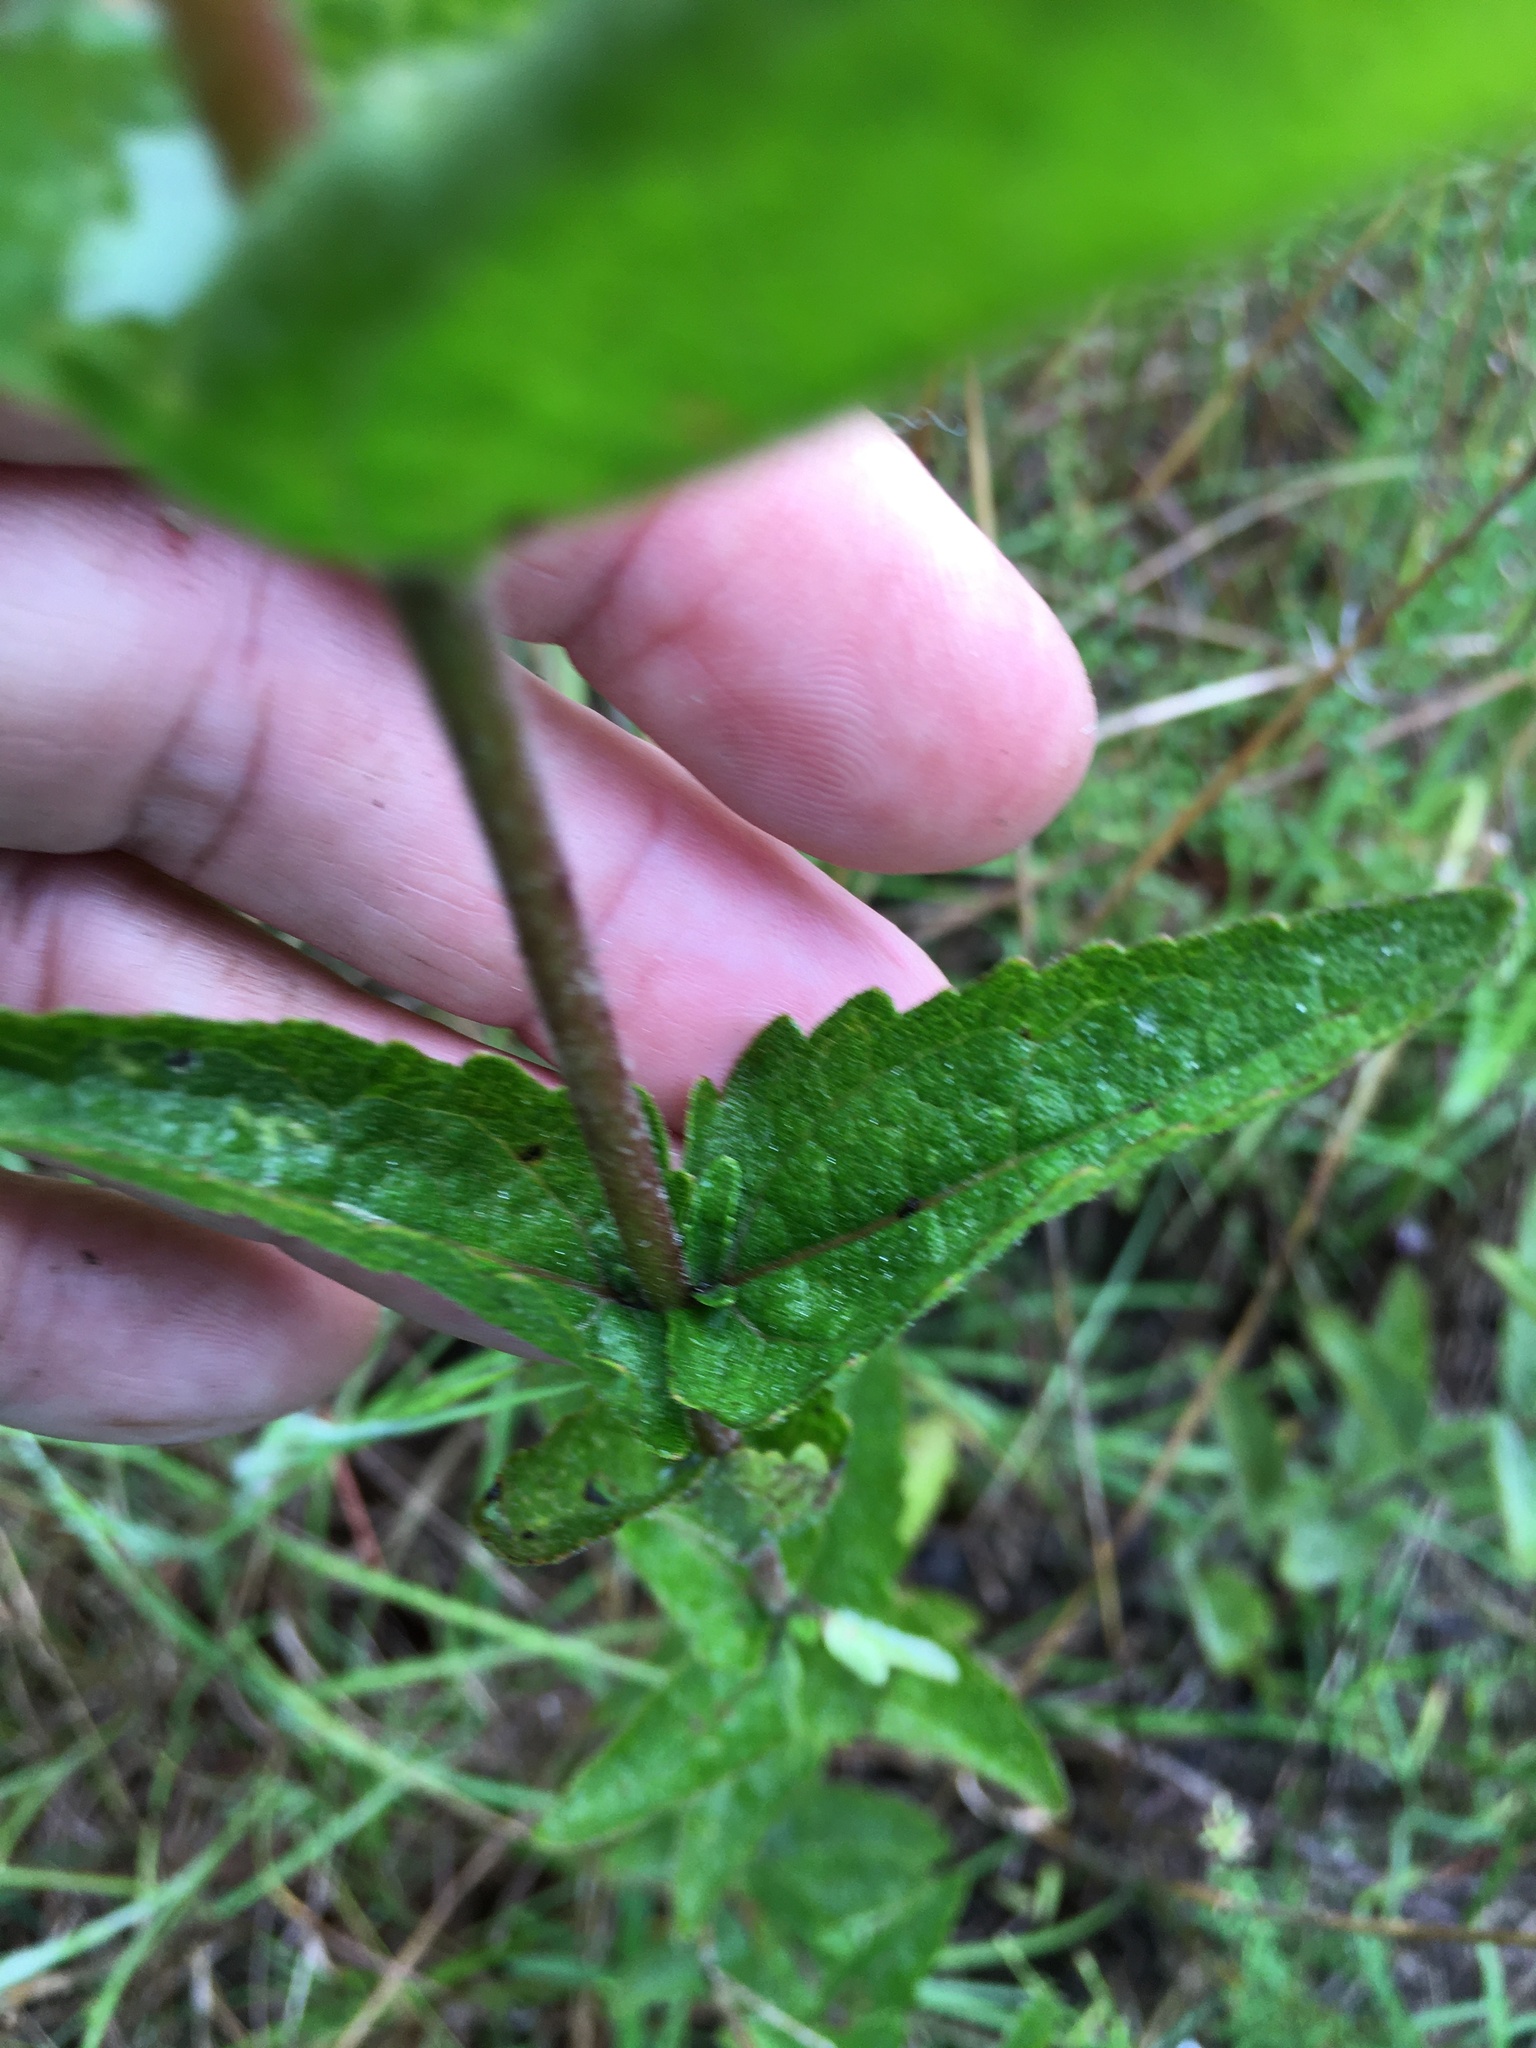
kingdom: Plantae
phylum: Tracheophyta
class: Magnoliopsida
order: Asterales
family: Asteraceae
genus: Eupatorium
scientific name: Eupatorium pilosum
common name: Rough boneset
